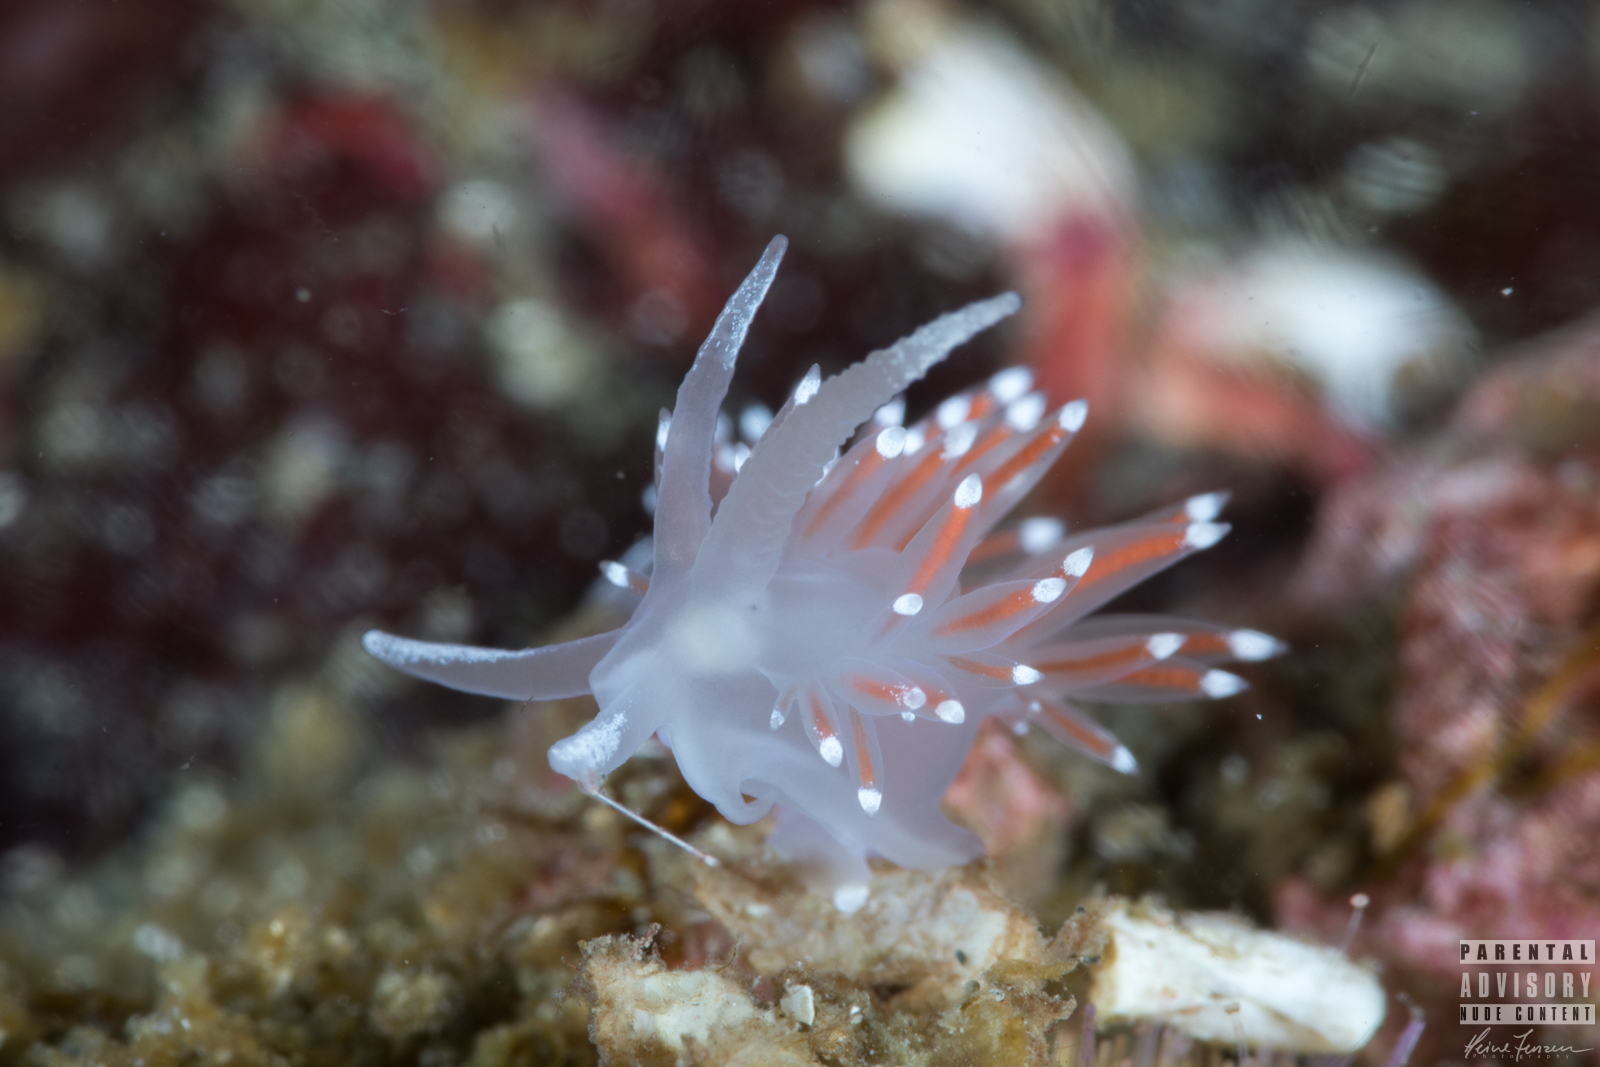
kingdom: Animalia
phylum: Mollusca
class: Gastropoda
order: Nudibranchia
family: Coryphellidae
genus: Coryphella
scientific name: Coryphella browni
